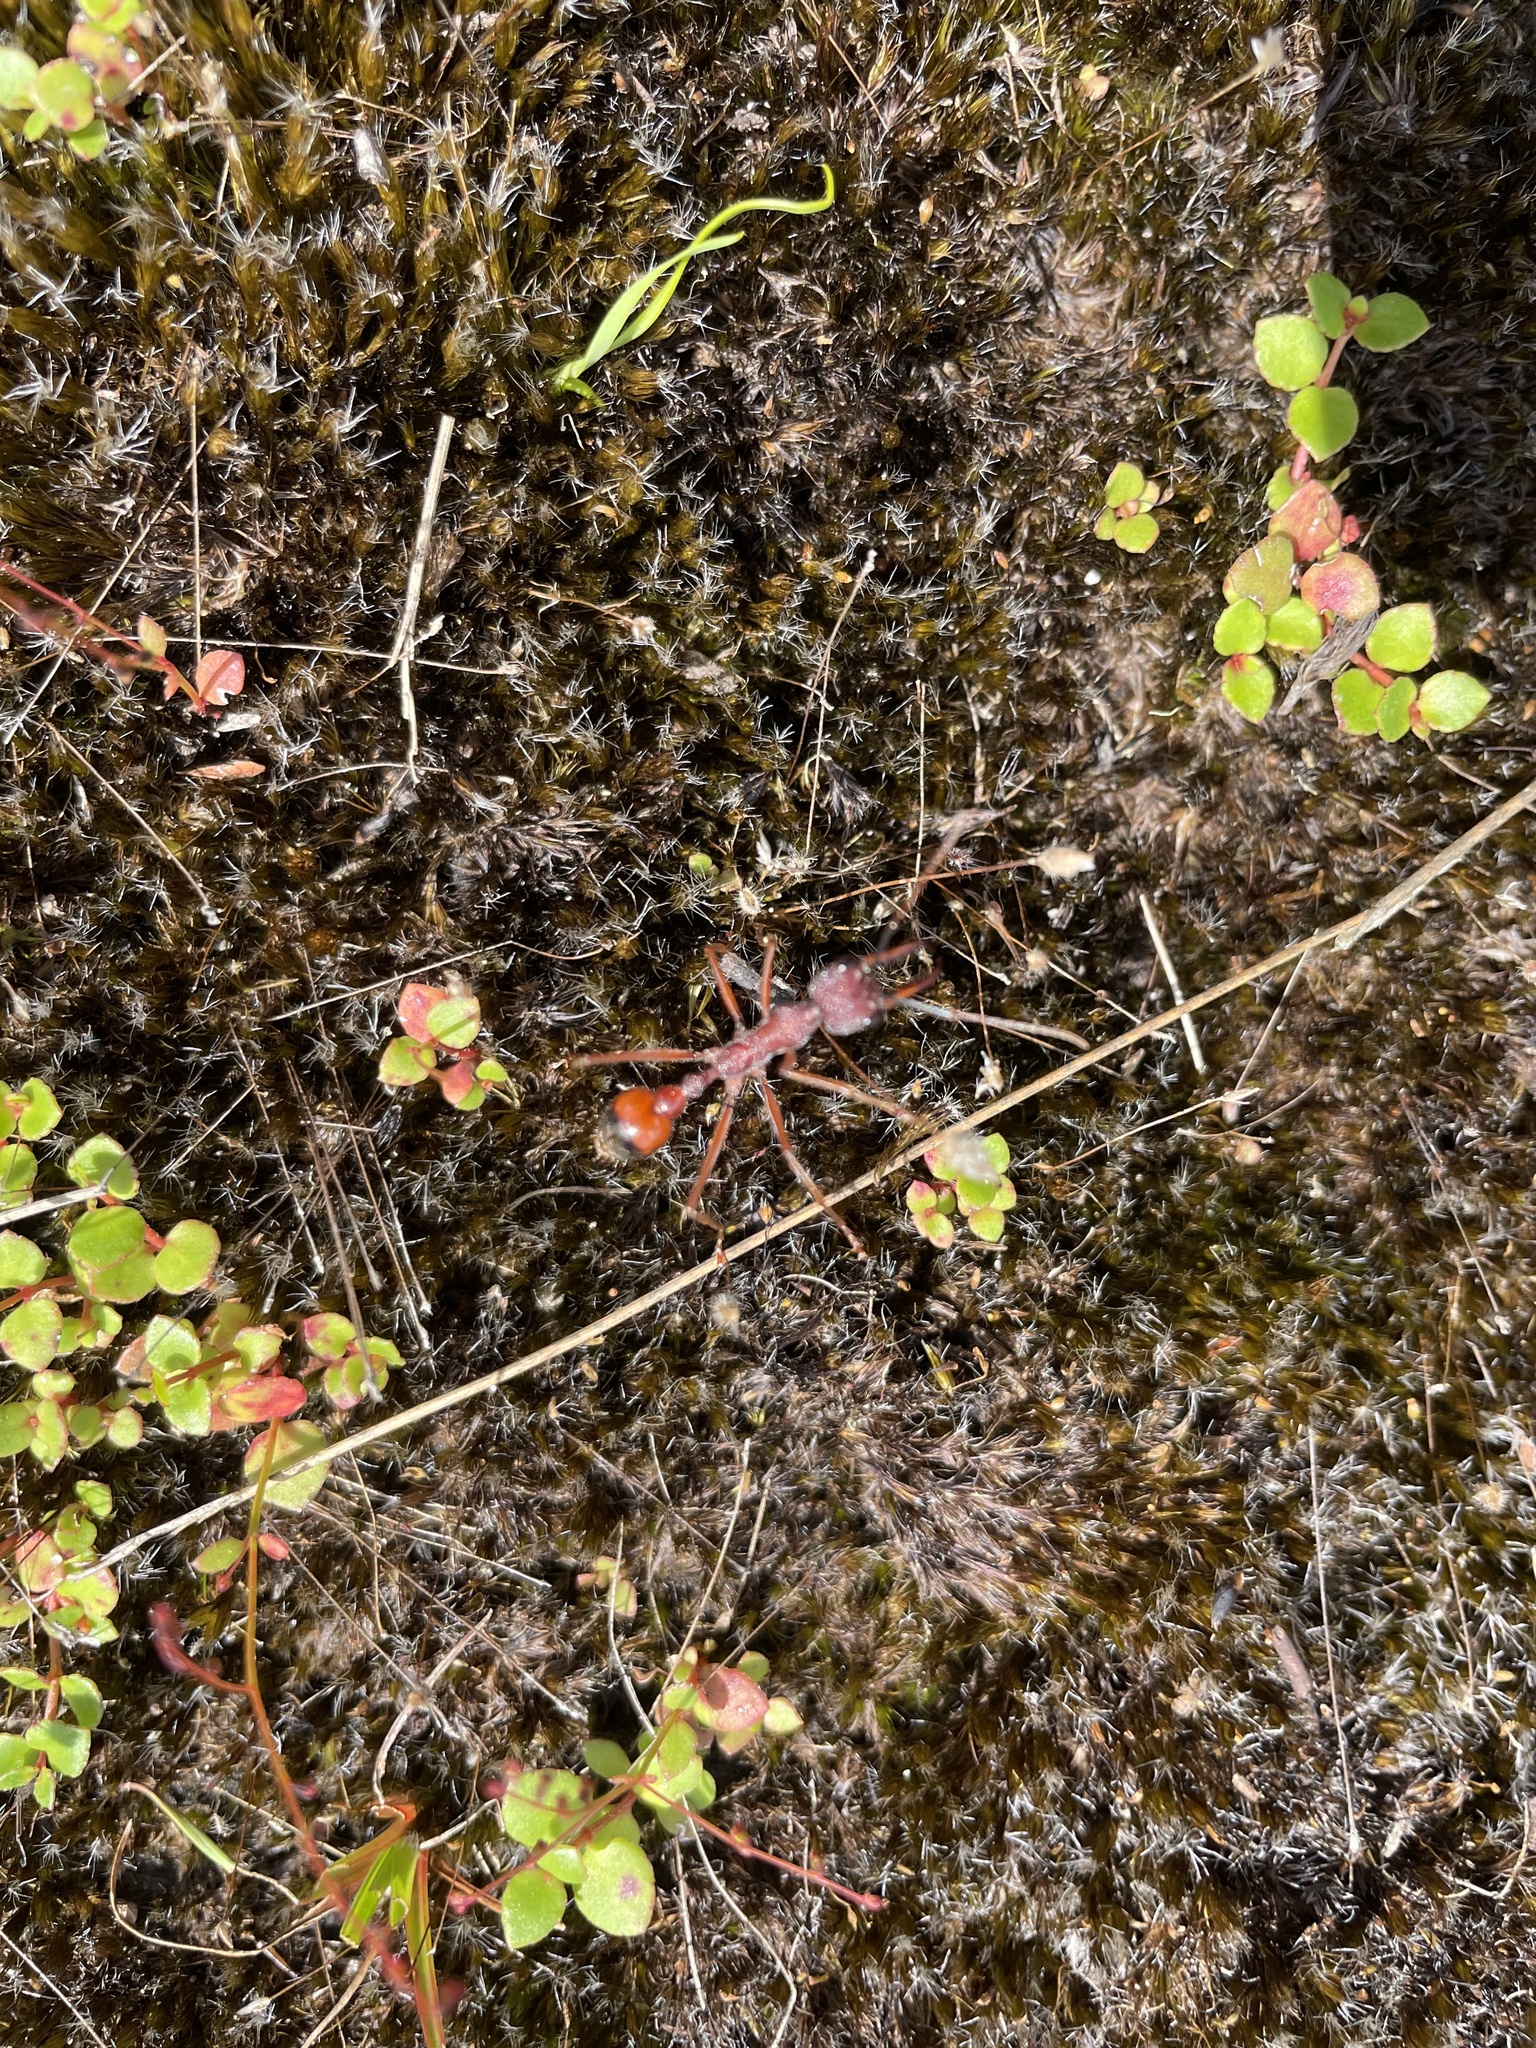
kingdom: Animalia
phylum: Arthropoda
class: Insecta
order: Hymenoptera
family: Formicidae
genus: Myrmecia
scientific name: Myrmecia nigriscapa
